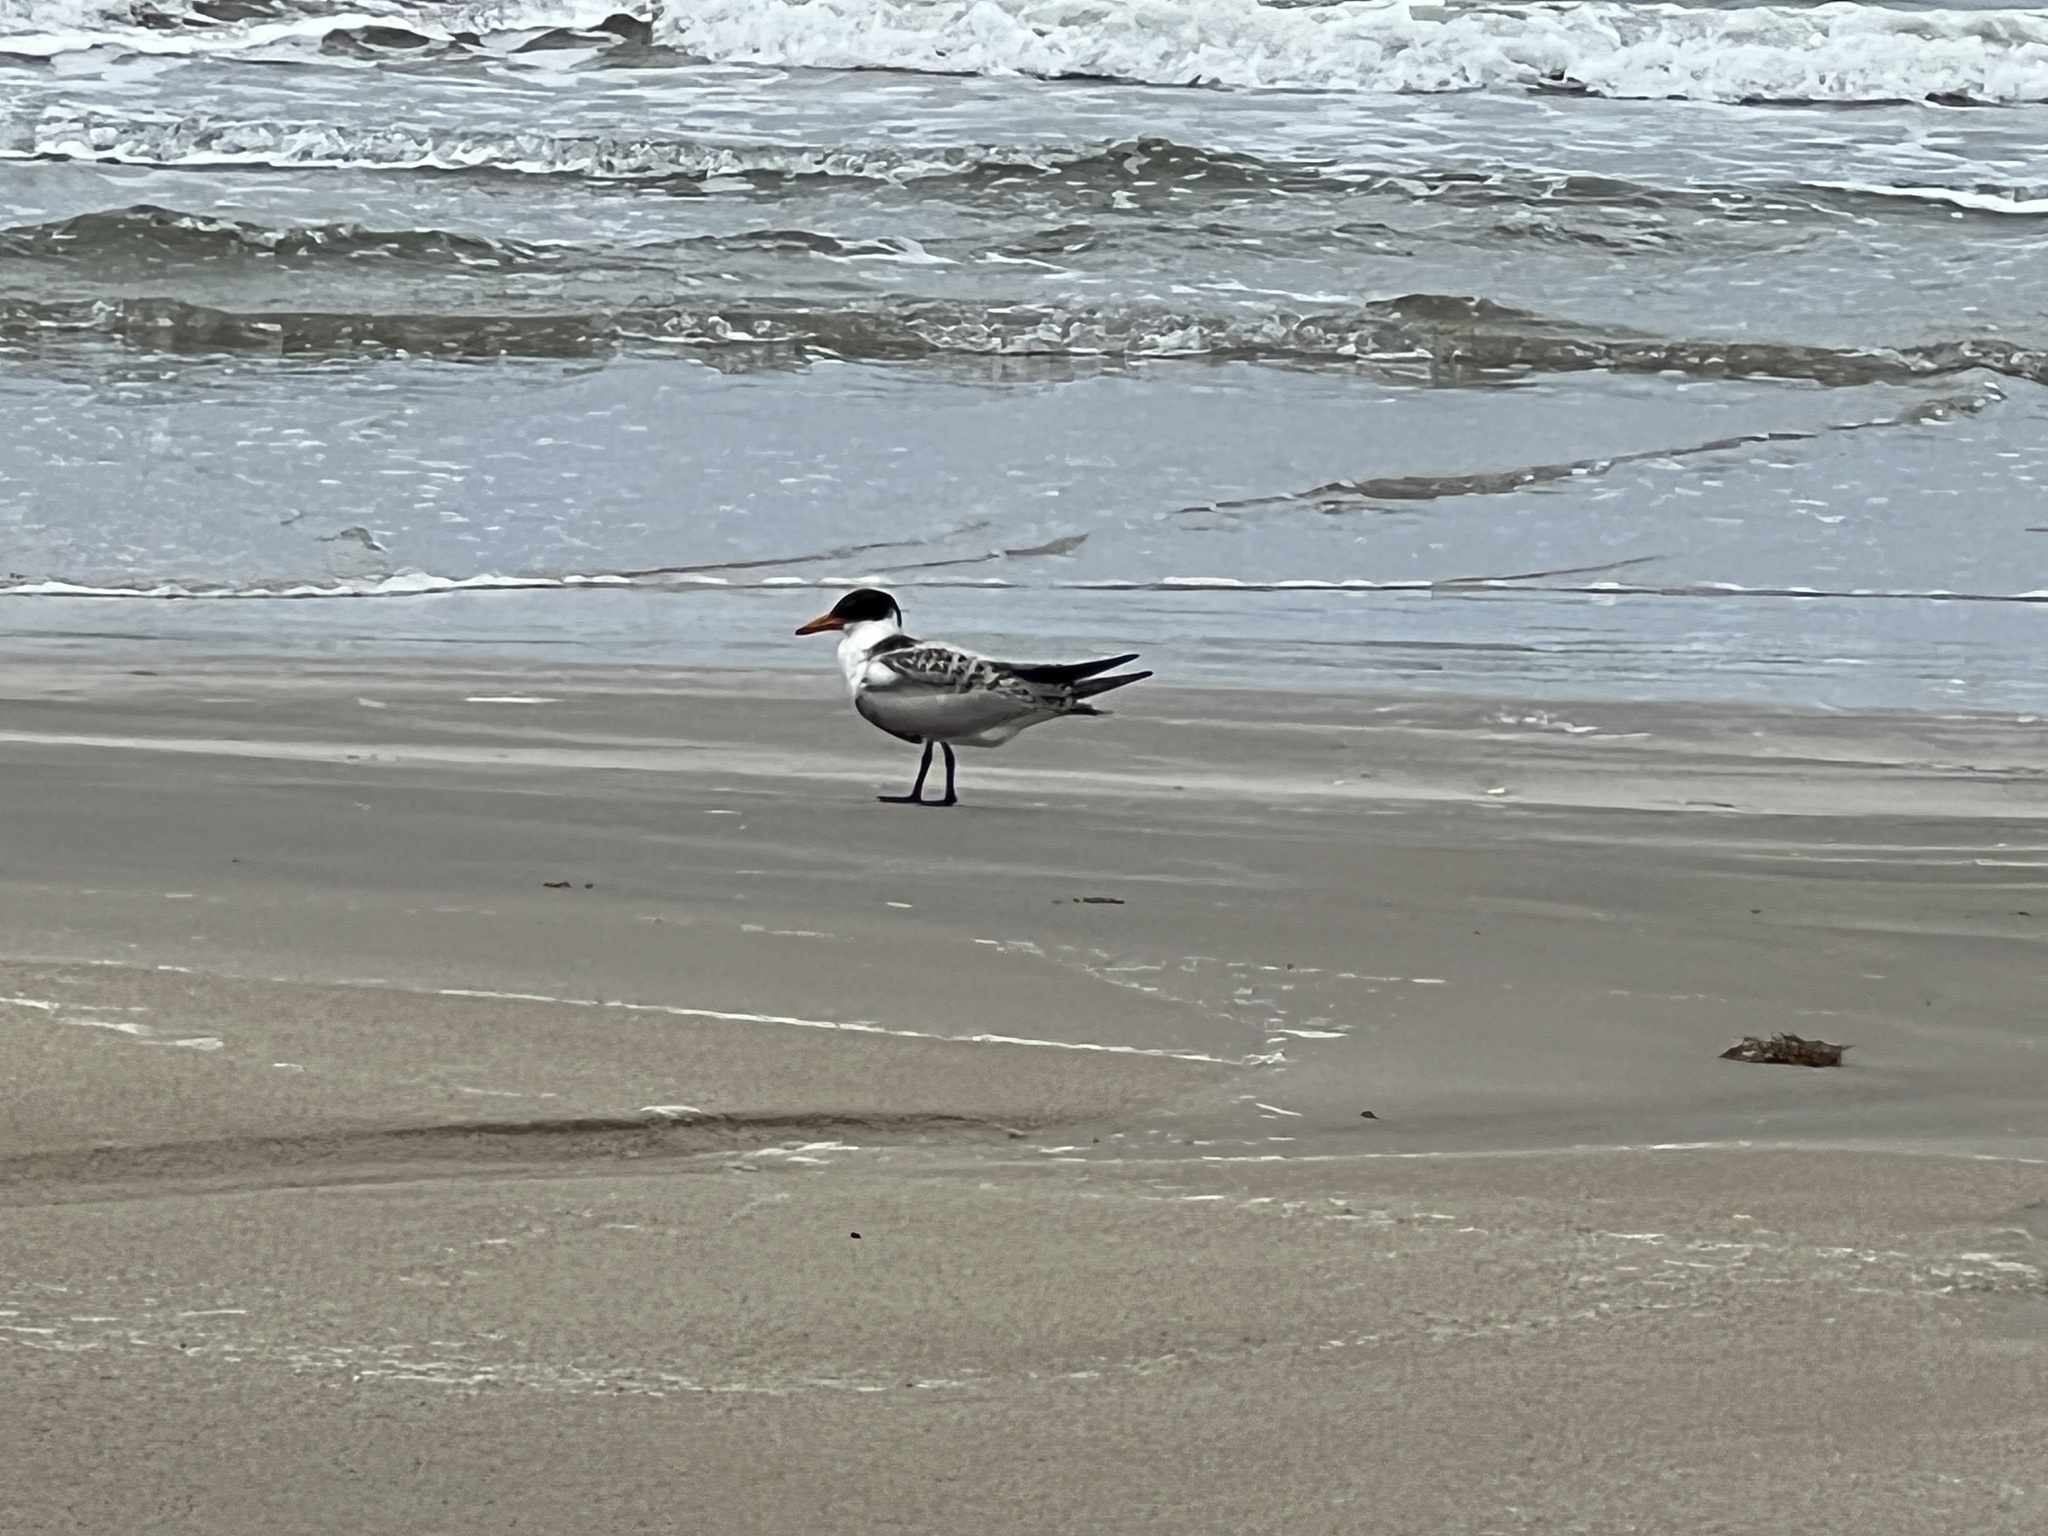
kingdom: Animalia
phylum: Chordata
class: Aves
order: Charadriiformes
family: Laridae
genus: Hydroprogne
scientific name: Hydroprogne caspia
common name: Caspian tern
